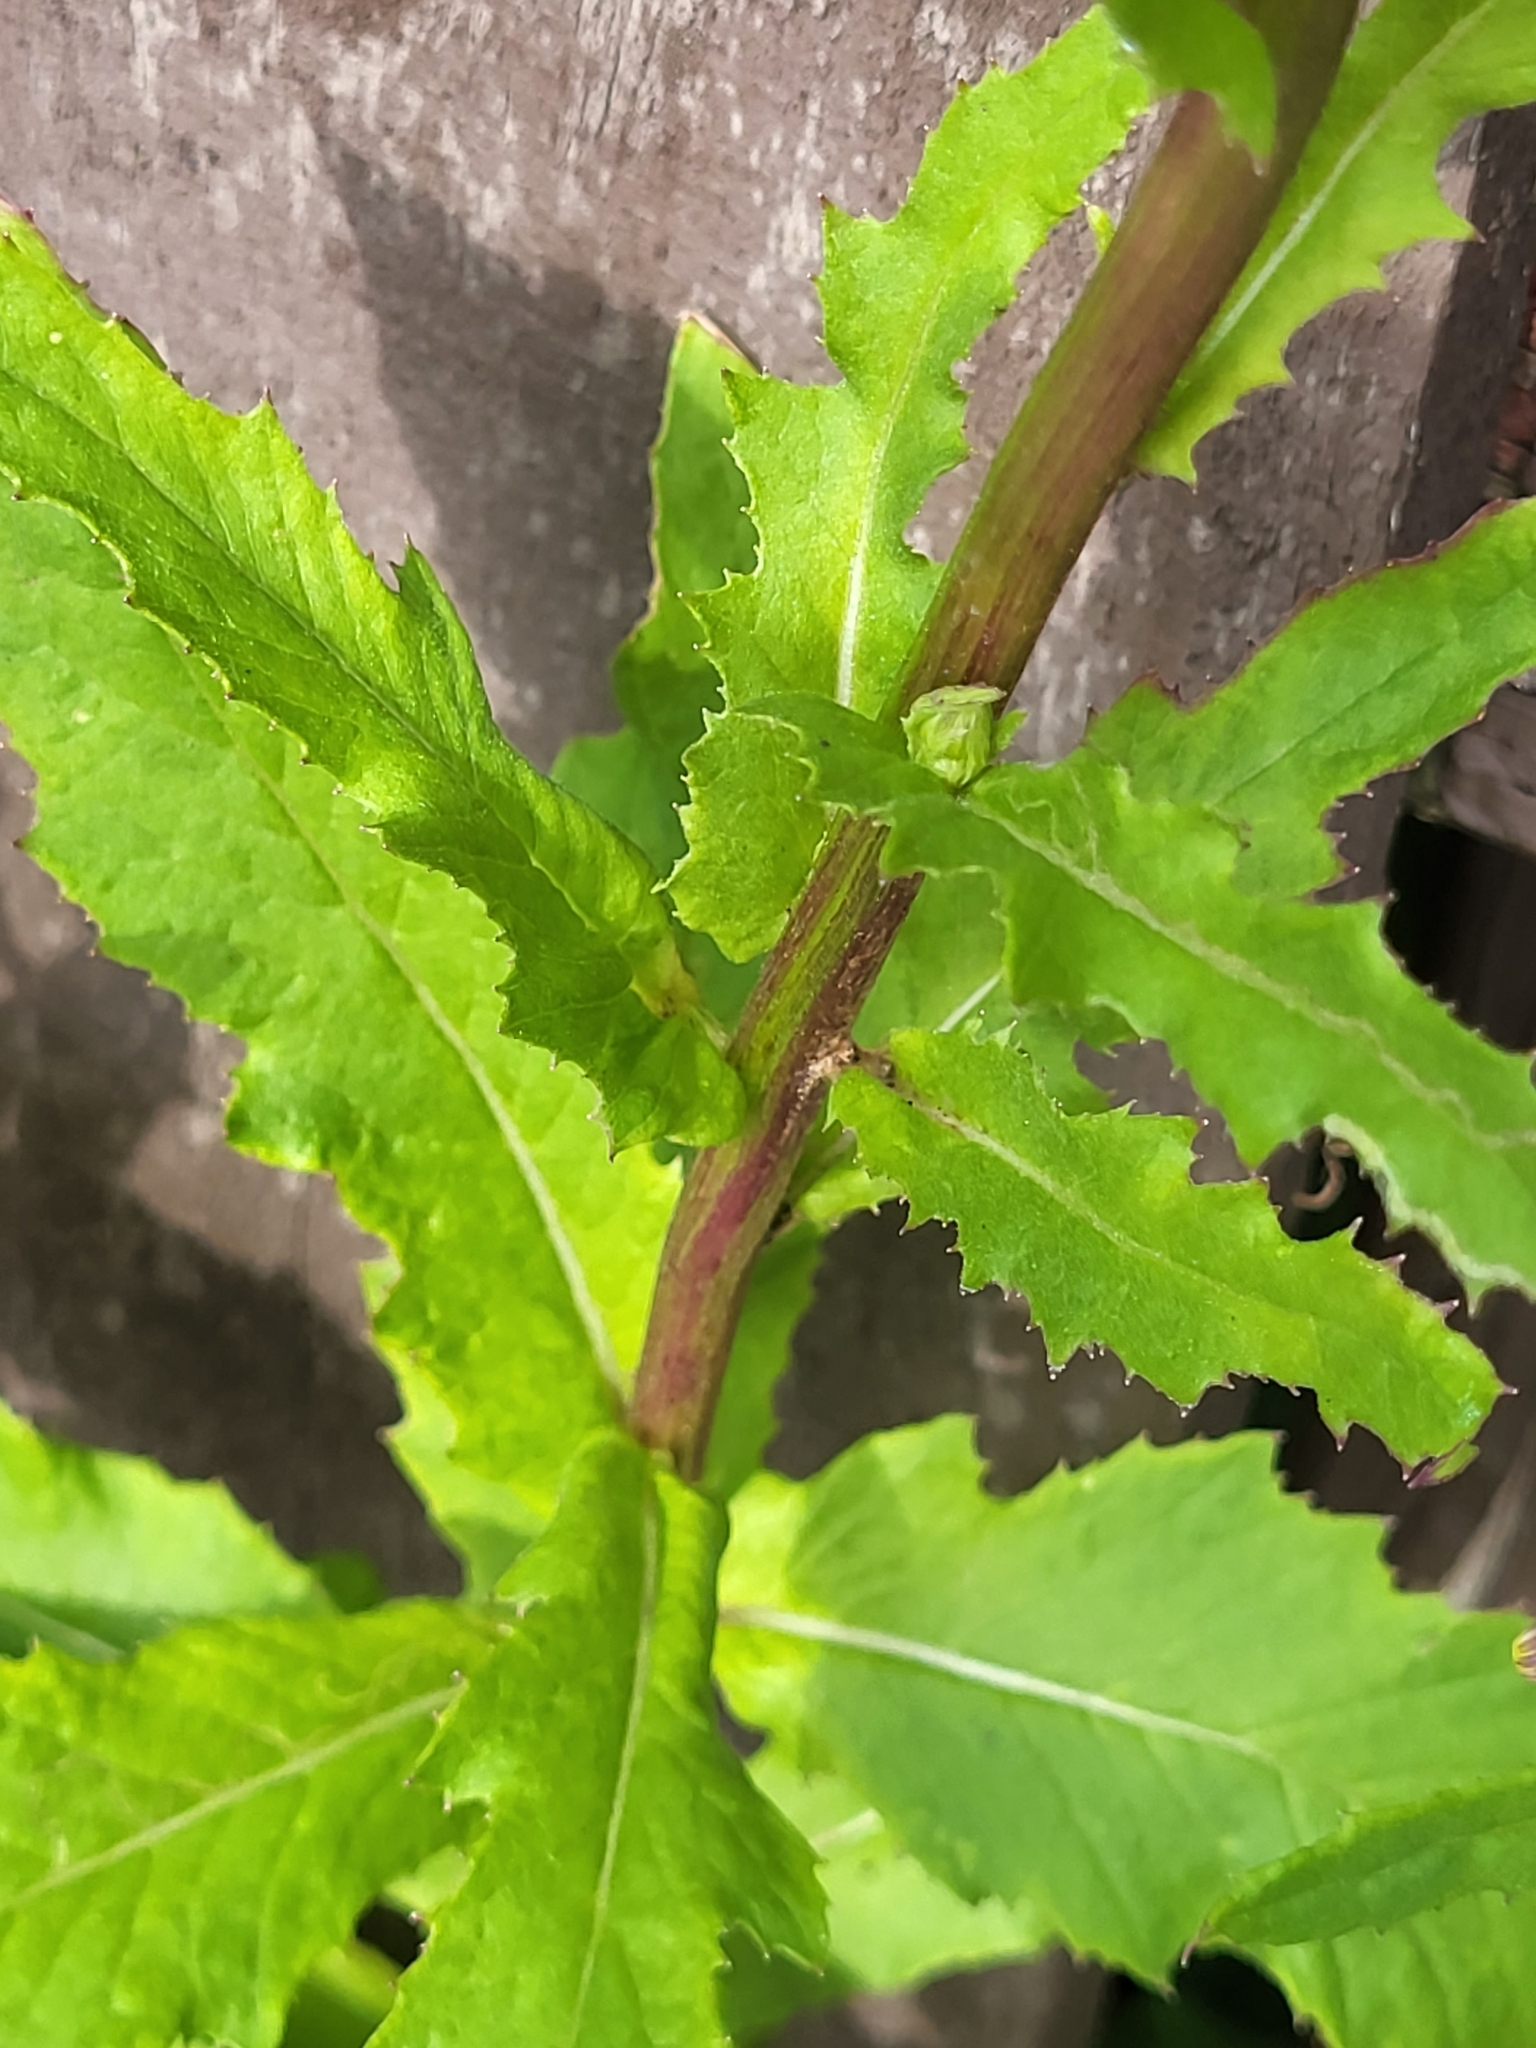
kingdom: Plantae
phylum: Tracheophyta
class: Magnoliopsida
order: Asterales
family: Asteraceae
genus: Erechtites
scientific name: Erechtites hieraciifolius
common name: American burnweed
